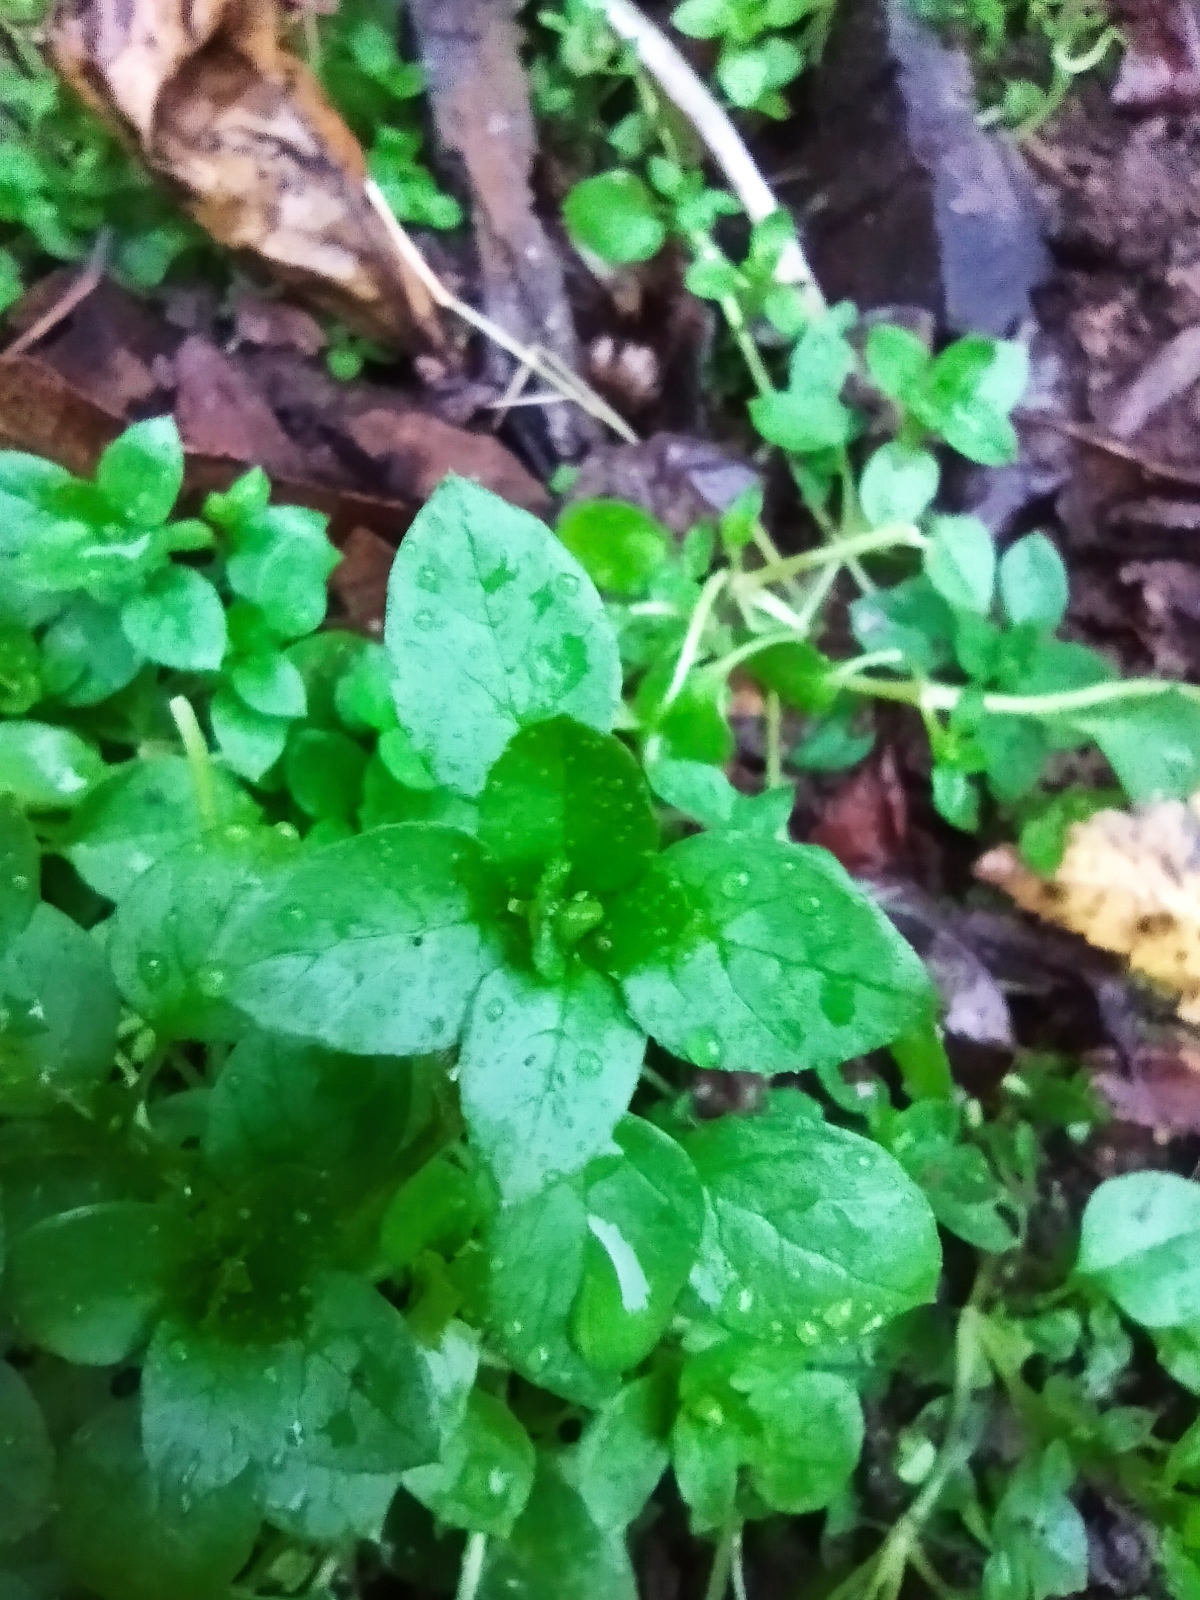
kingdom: Plantae
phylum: Tracheophyta
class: Magnoliopsida
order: Caryophyllales
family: Caryophyllaceae
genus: Stellaria
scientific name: Stellaria media
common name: Common chickweed
